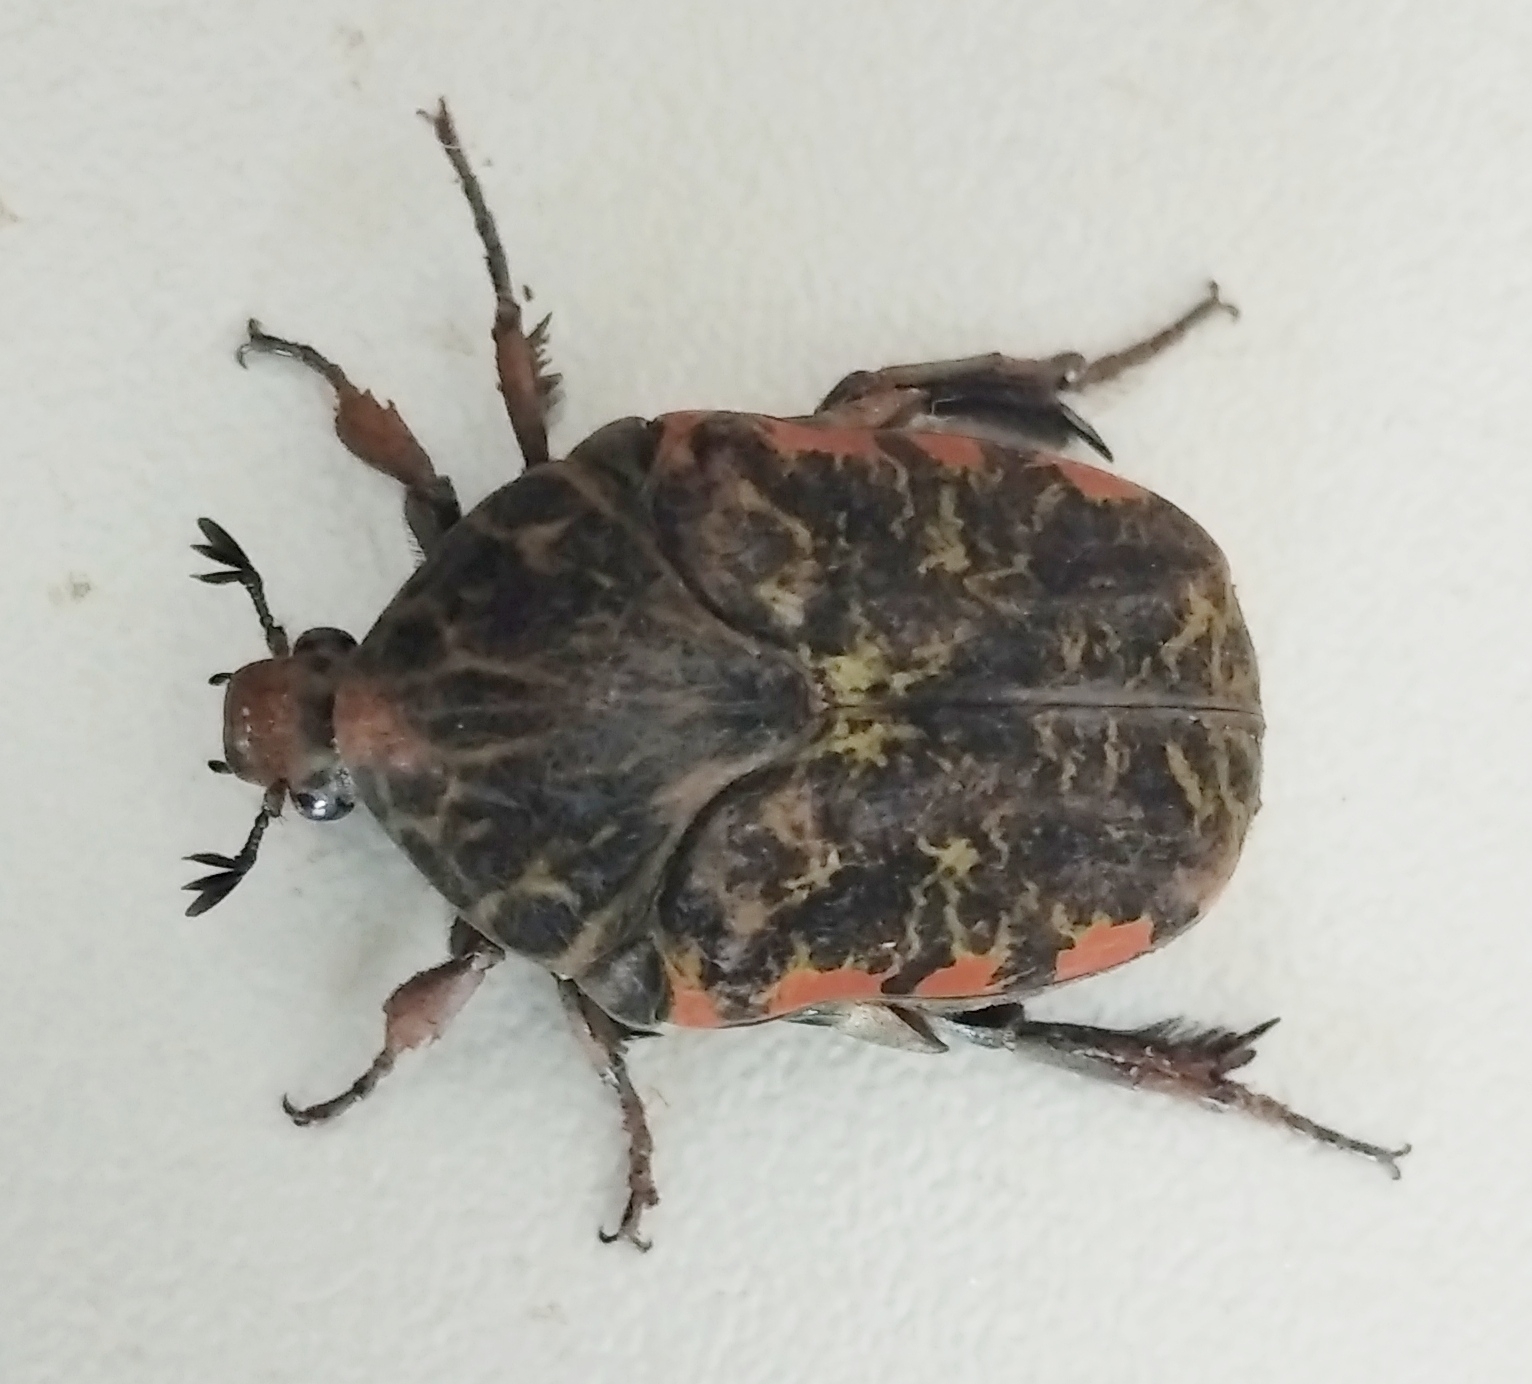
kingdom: Animalia
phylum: Arthropoda
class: Insecta
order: Coleoptera
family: Scarabaeidae
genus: Gymnetis
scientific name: Gymnetis rufilatris
